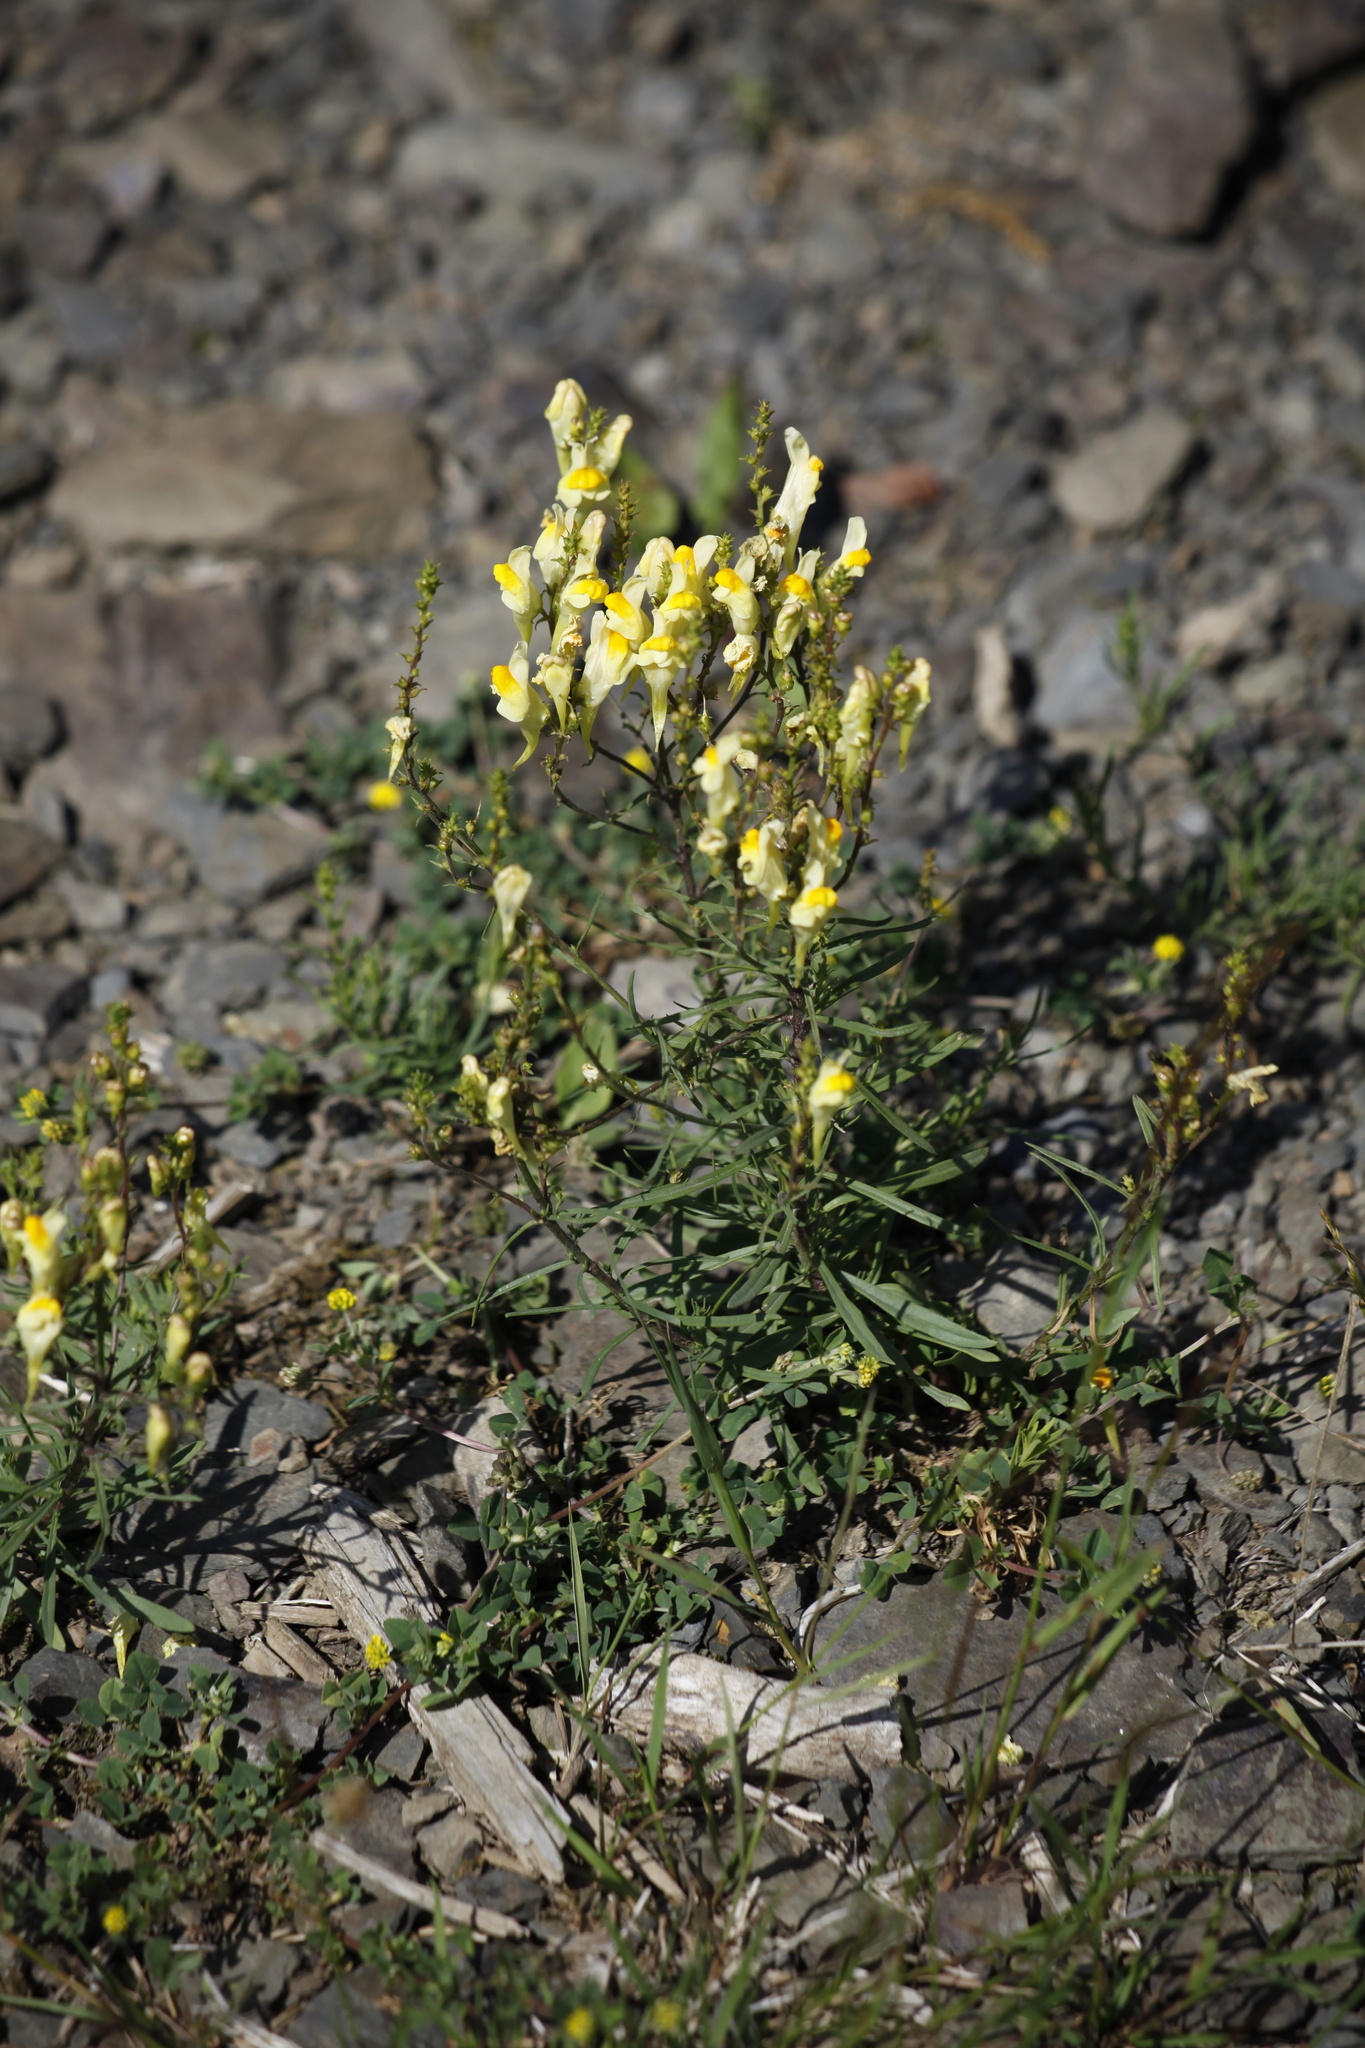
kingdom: Plantae
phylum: Tracheophyta
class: Magnoliopsida
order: Lamiales
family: Plantaginaceae
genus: Linaria
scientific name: Linaria vulgaris
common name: Butter and eggs
